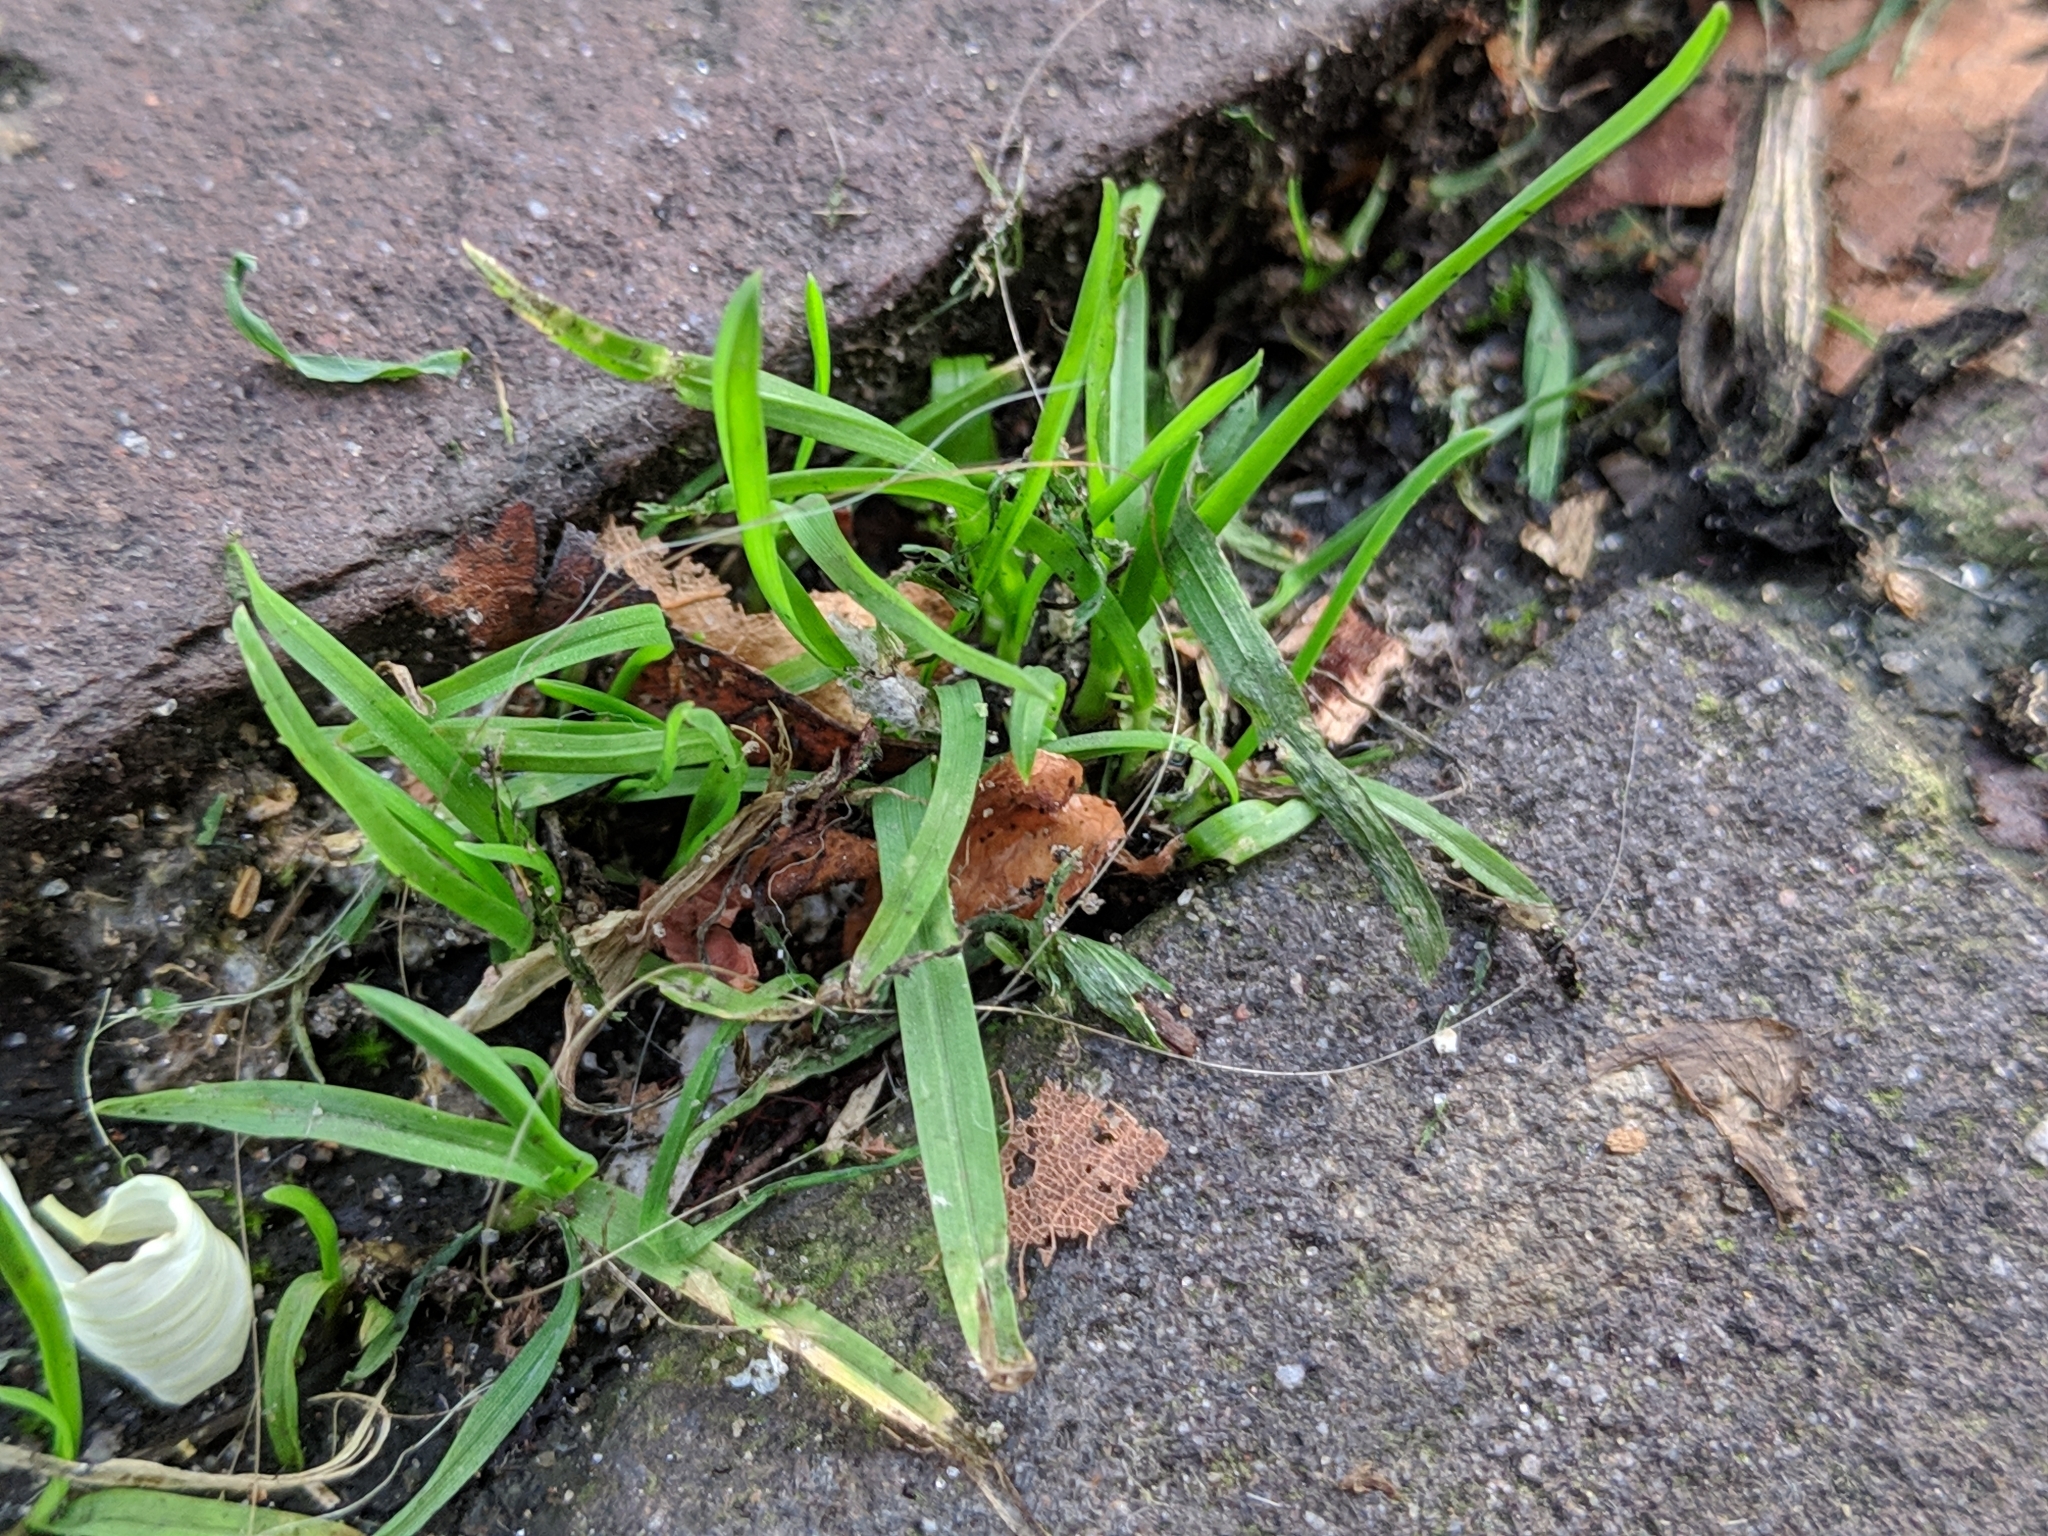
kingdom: Plantae
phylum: Tracheophyta
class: Liliopsida
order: Poales
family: Poaceae
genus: Poa
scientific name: Poa annua
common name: Annual bluegrass
